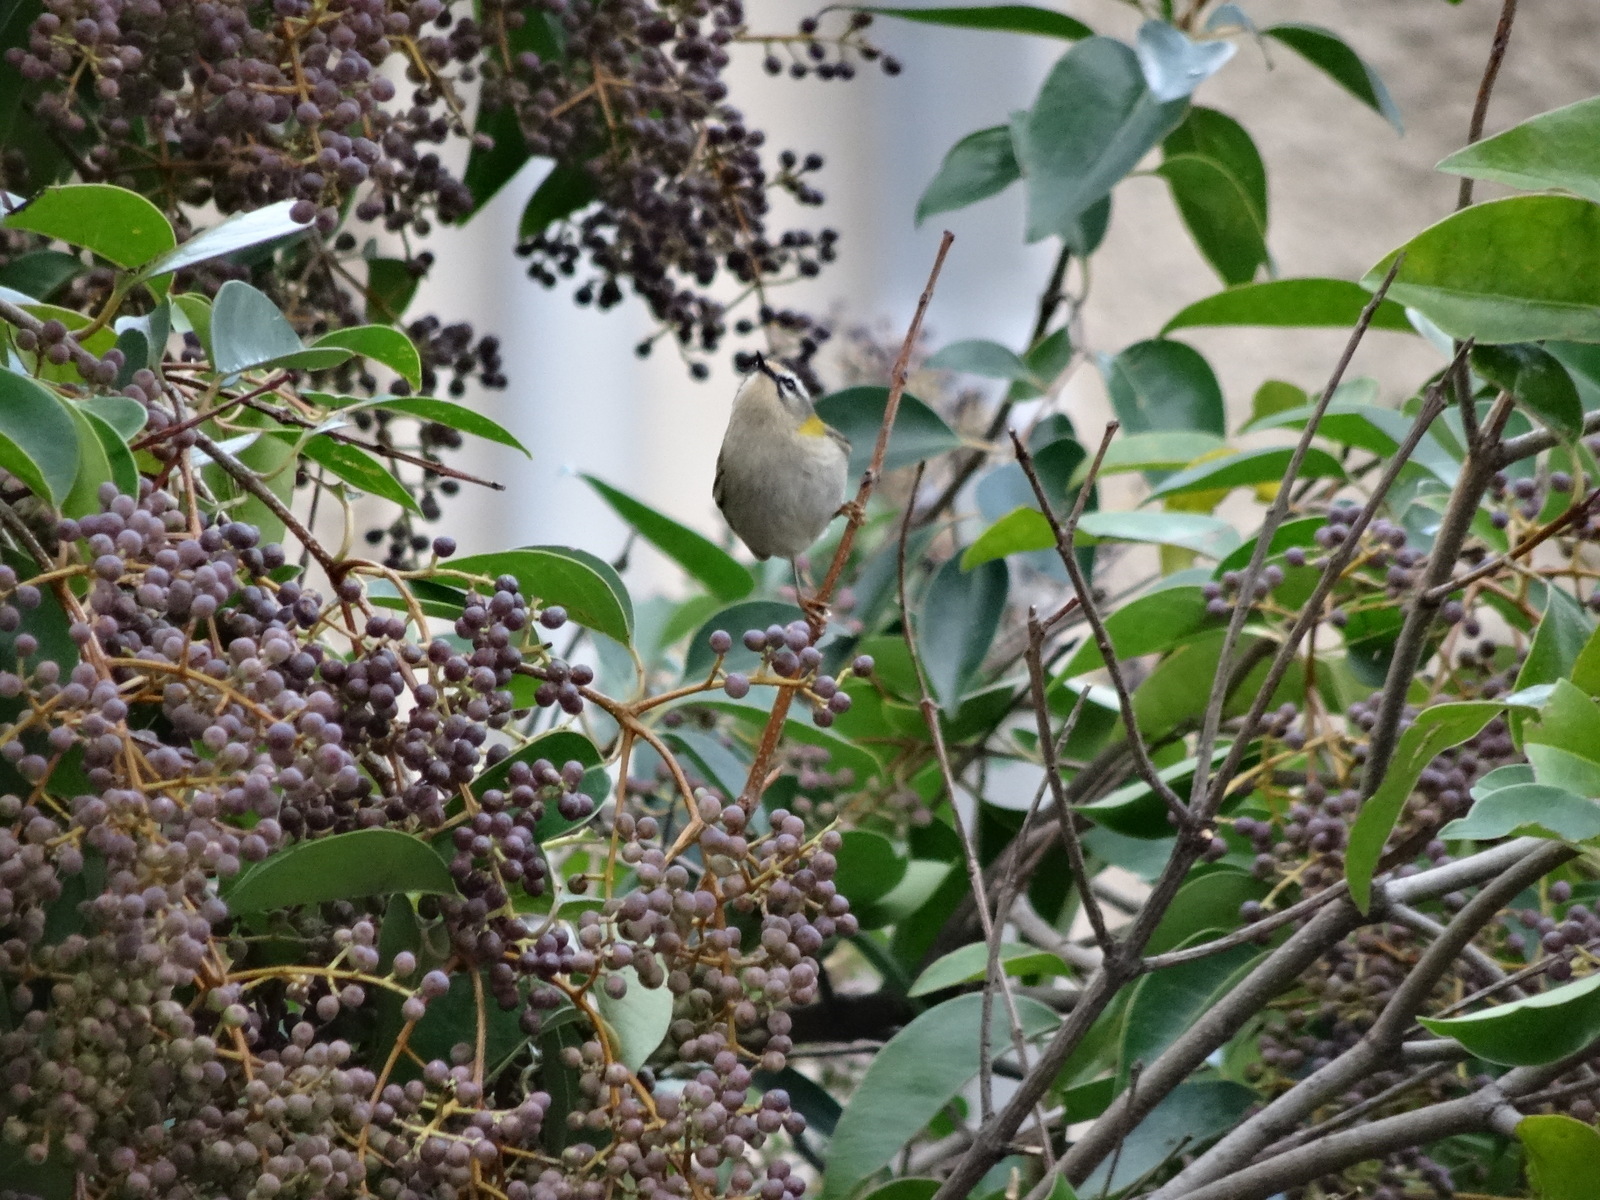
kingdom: Animalia
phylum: Chordata
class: Aves
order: Passeriformes
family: Regulidae
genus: Regulus
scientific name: Regulus ignicapilla
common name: Firecrest
